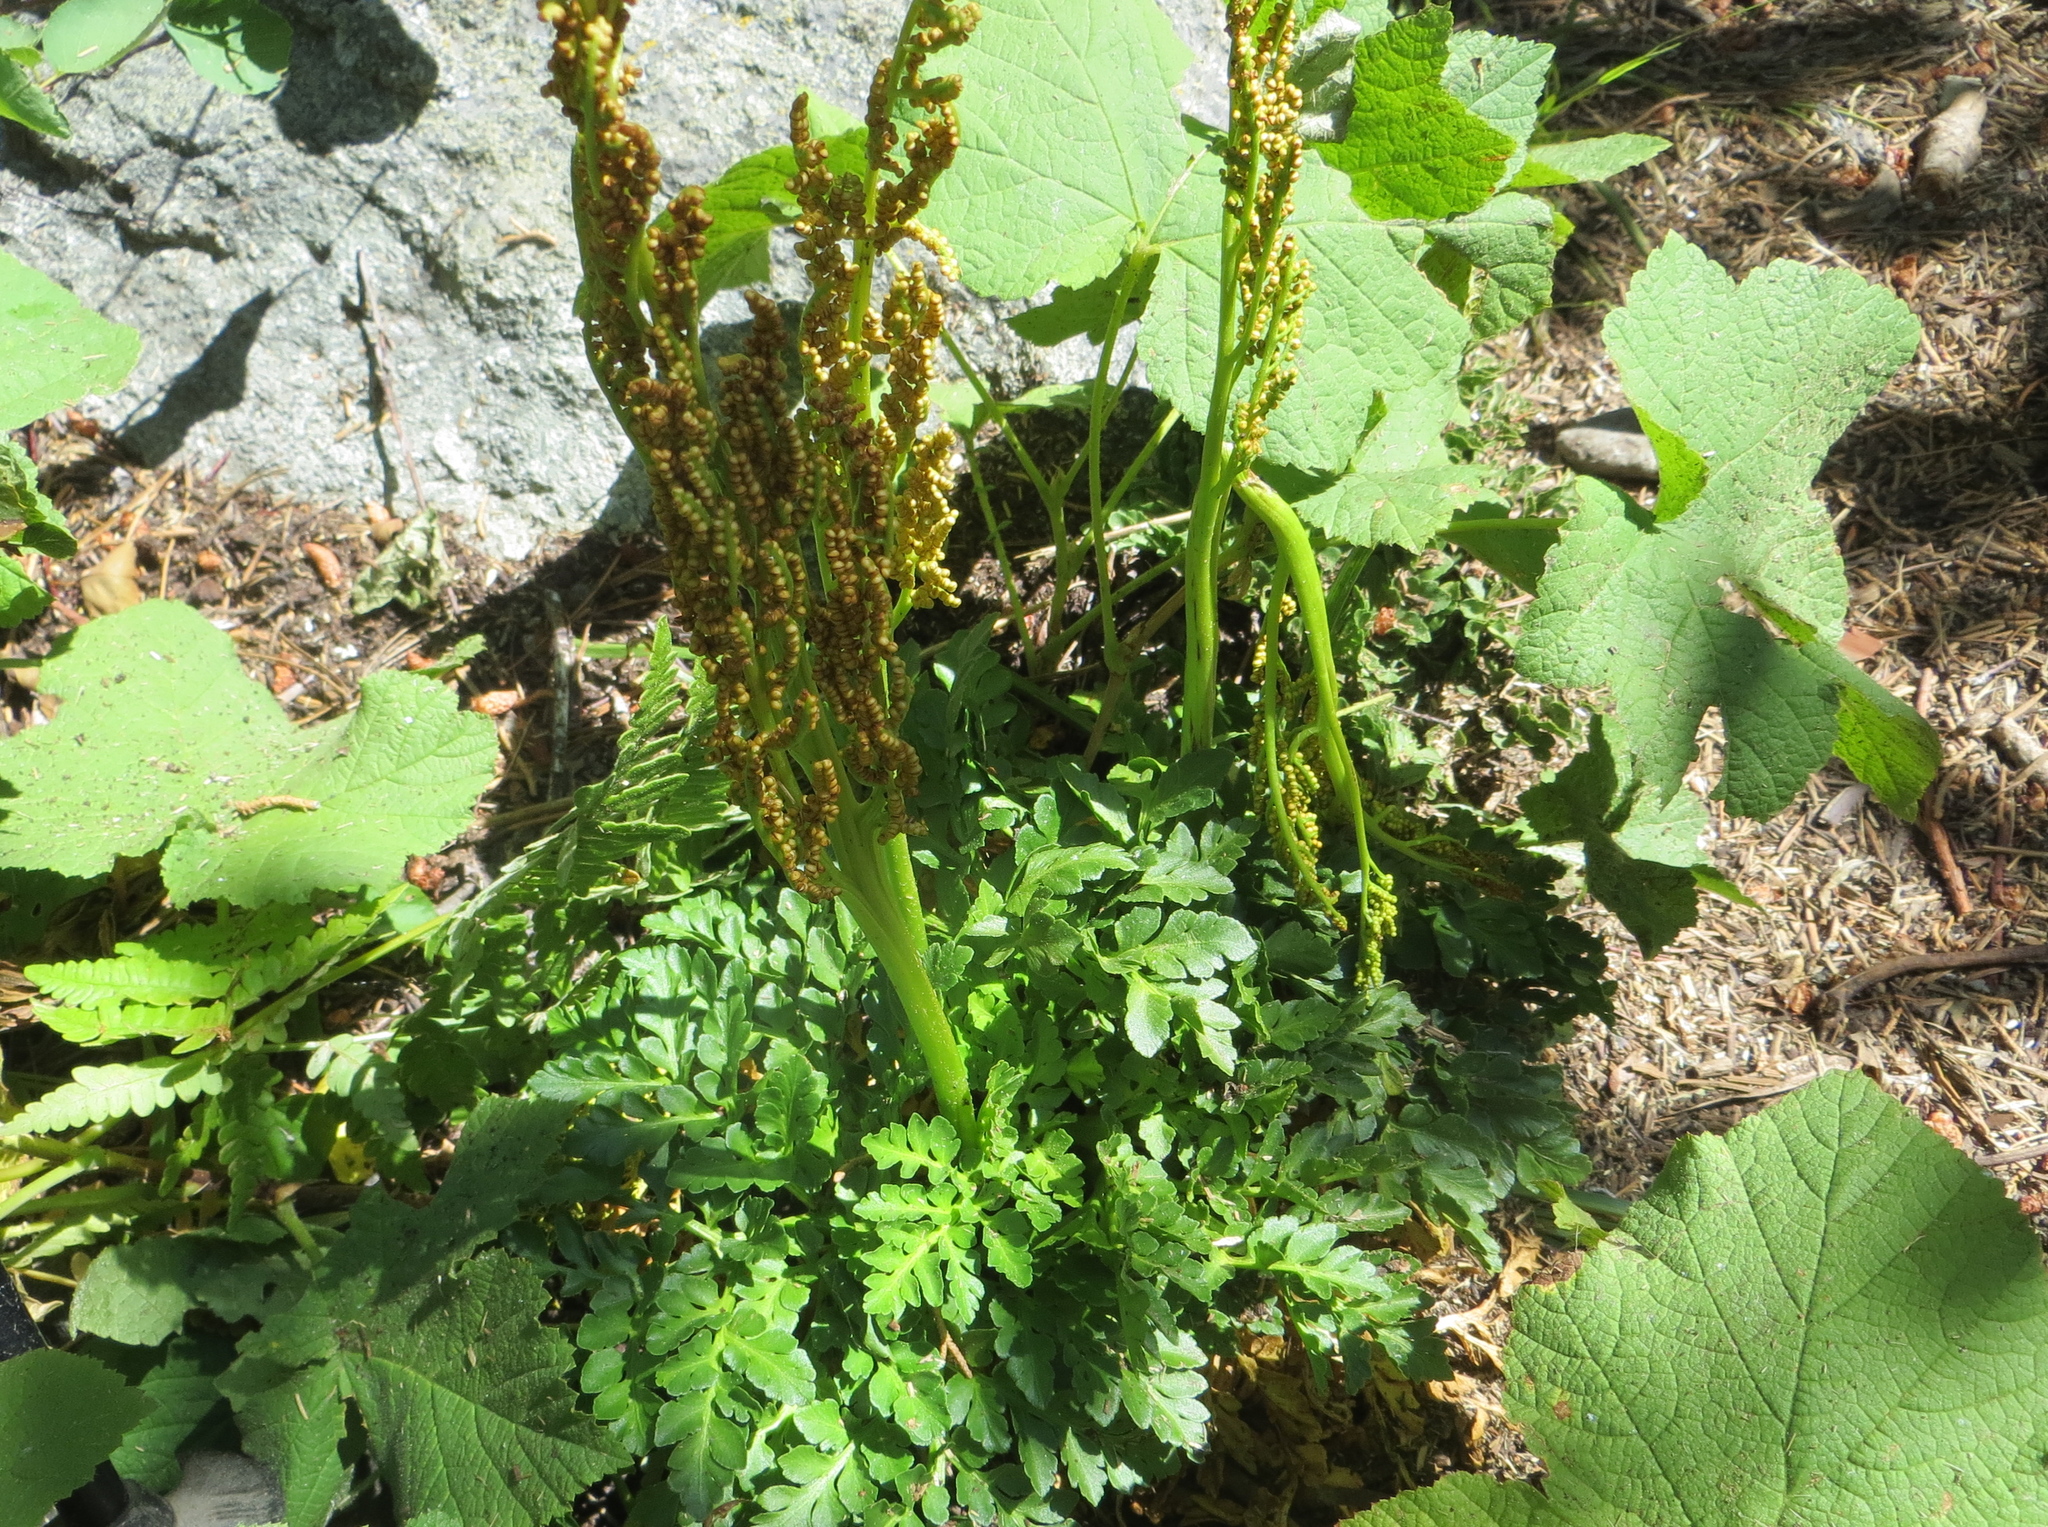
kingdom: Plantae
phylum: Tracheophyta
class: Polypodiopsida
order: Ophioglossales
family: Ophioglossaceae
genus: Sceptridium
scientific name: Sceptridium multifidum
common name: Leathery grape fern
